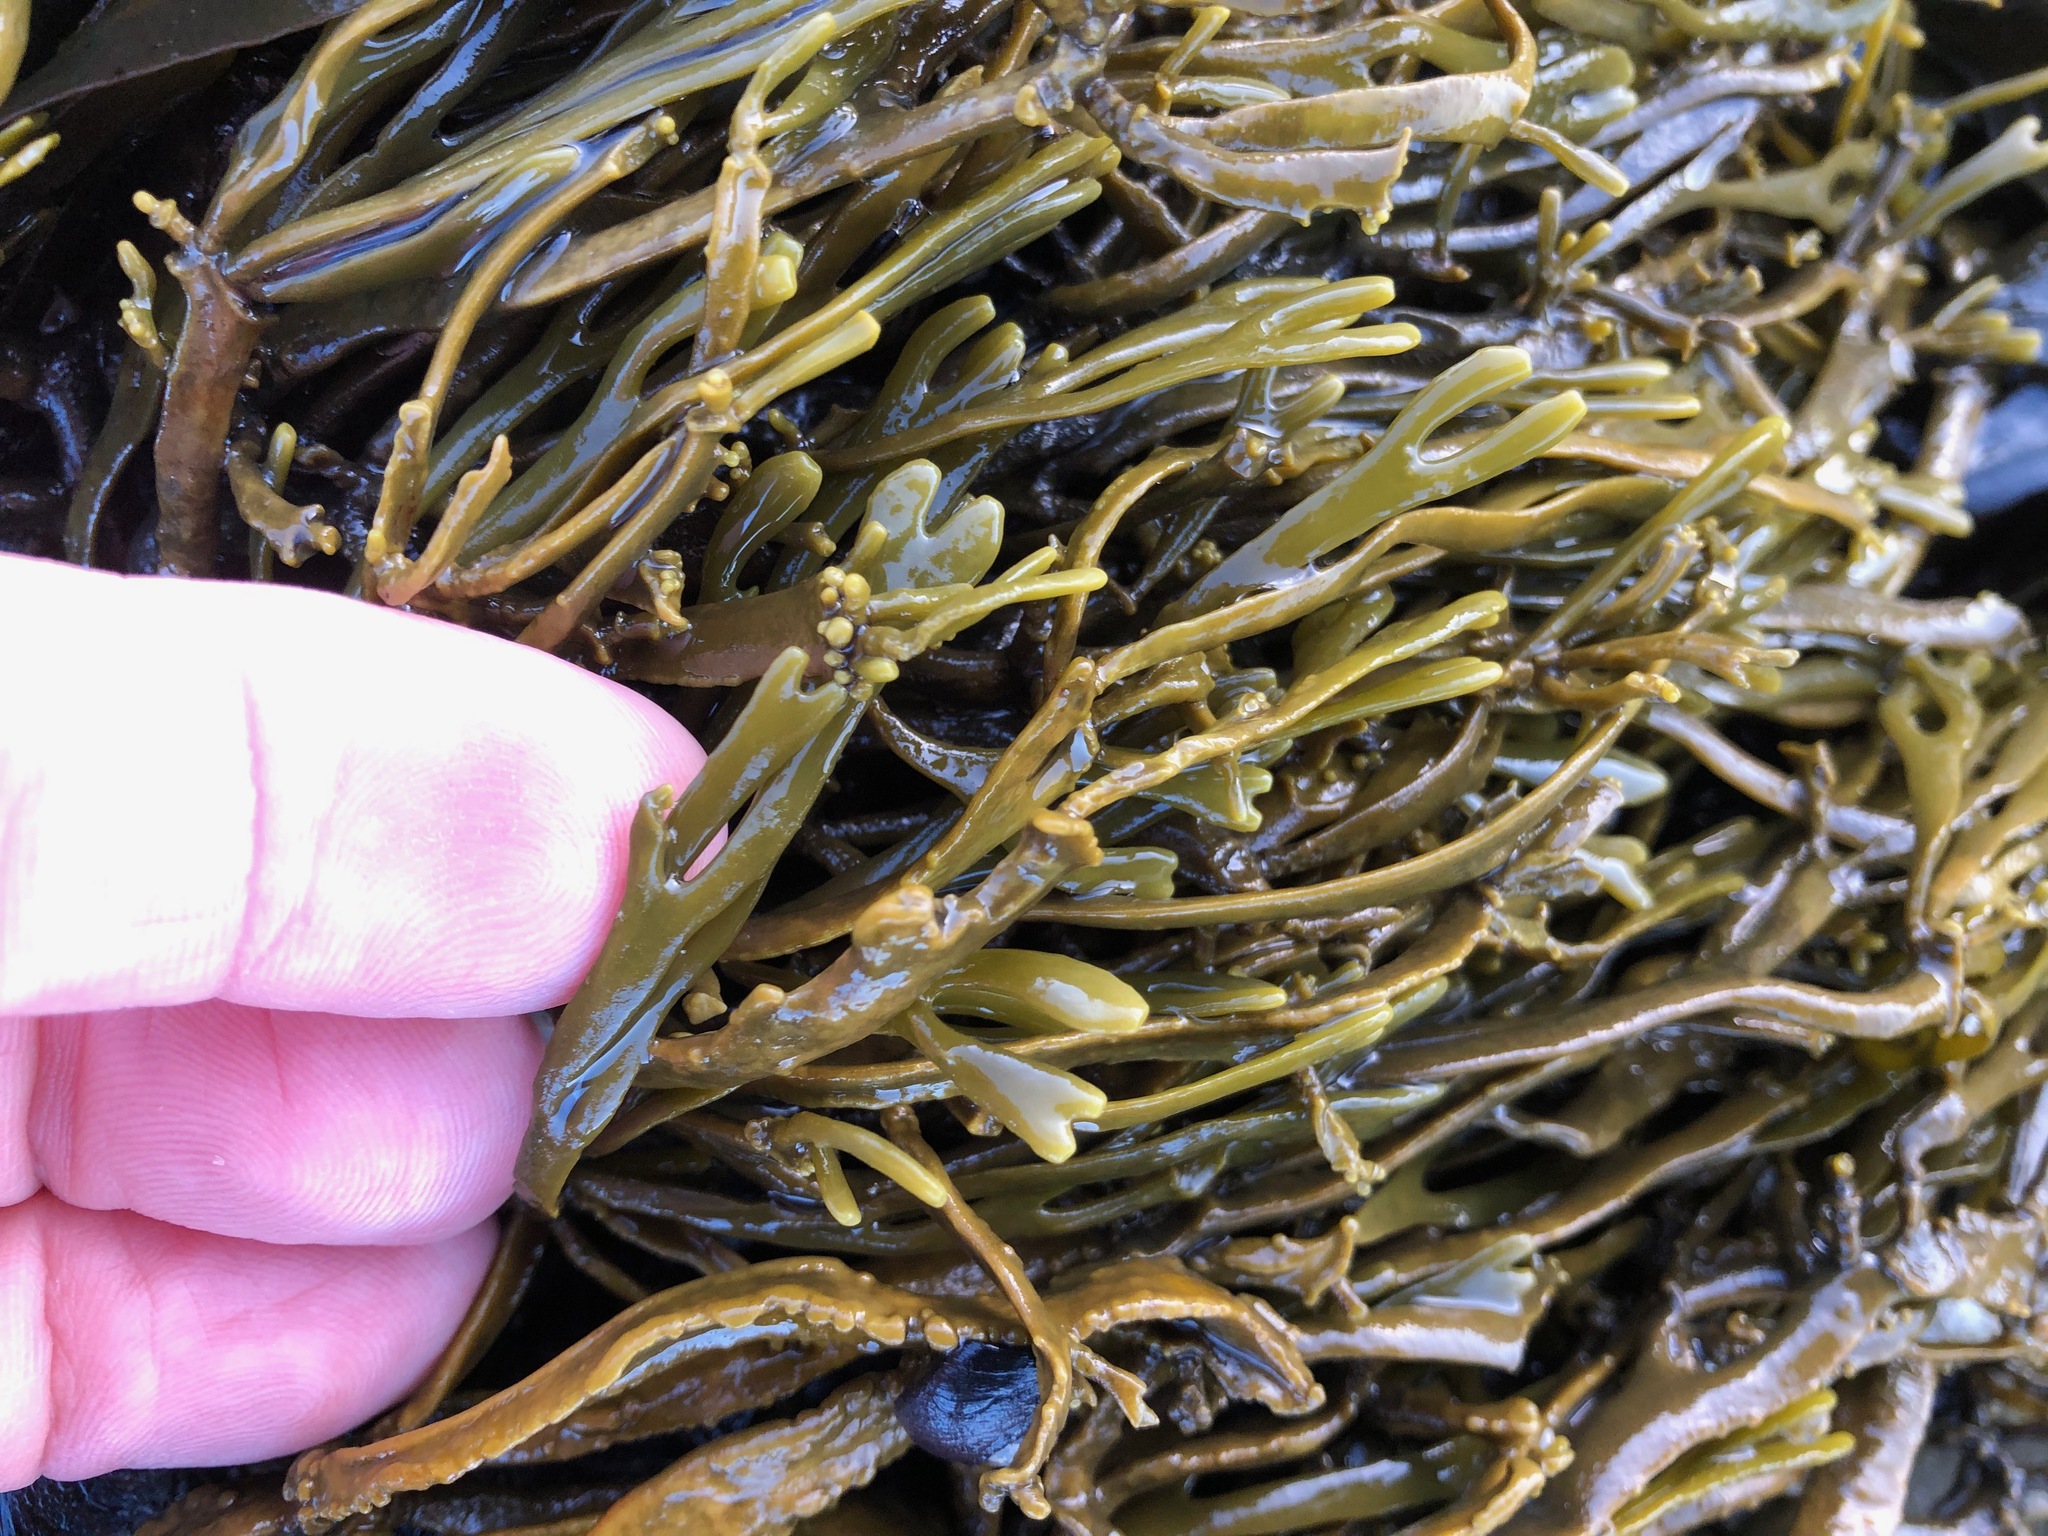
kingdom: Chromista
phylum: Ochrophyta
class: Phaeophyceae
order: Fucales
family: Fucaceae
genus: Silvetia
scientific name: Silvetia
